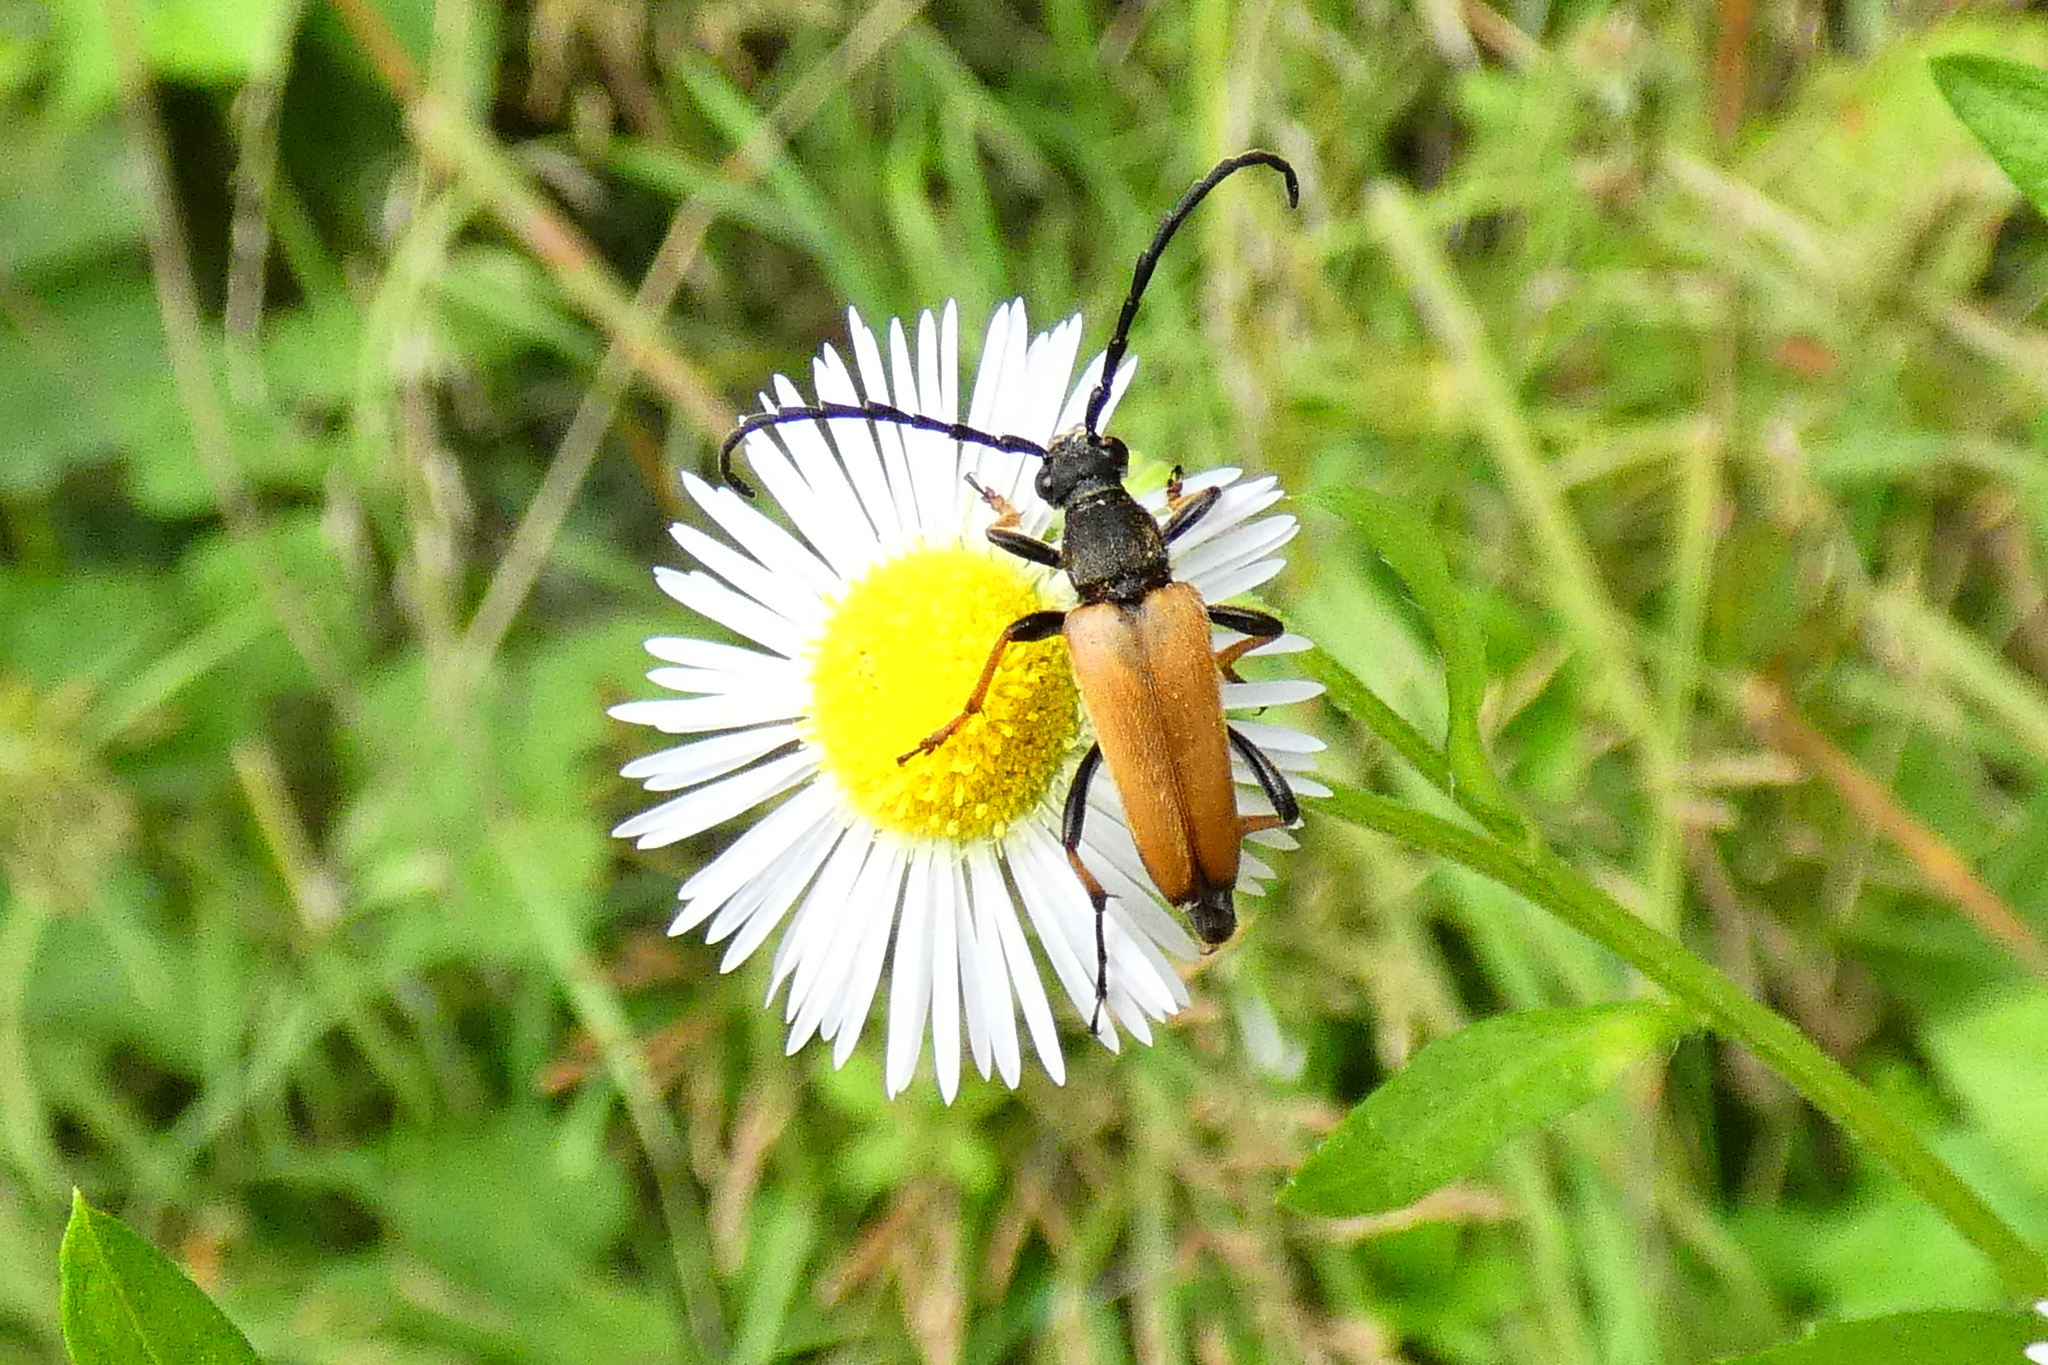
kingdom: Animalia
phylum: Arthropoda
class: Insecta
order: Coleoptera
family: Cerambycidae
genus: Stictoleptura
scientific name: Stictoleptura rubra
